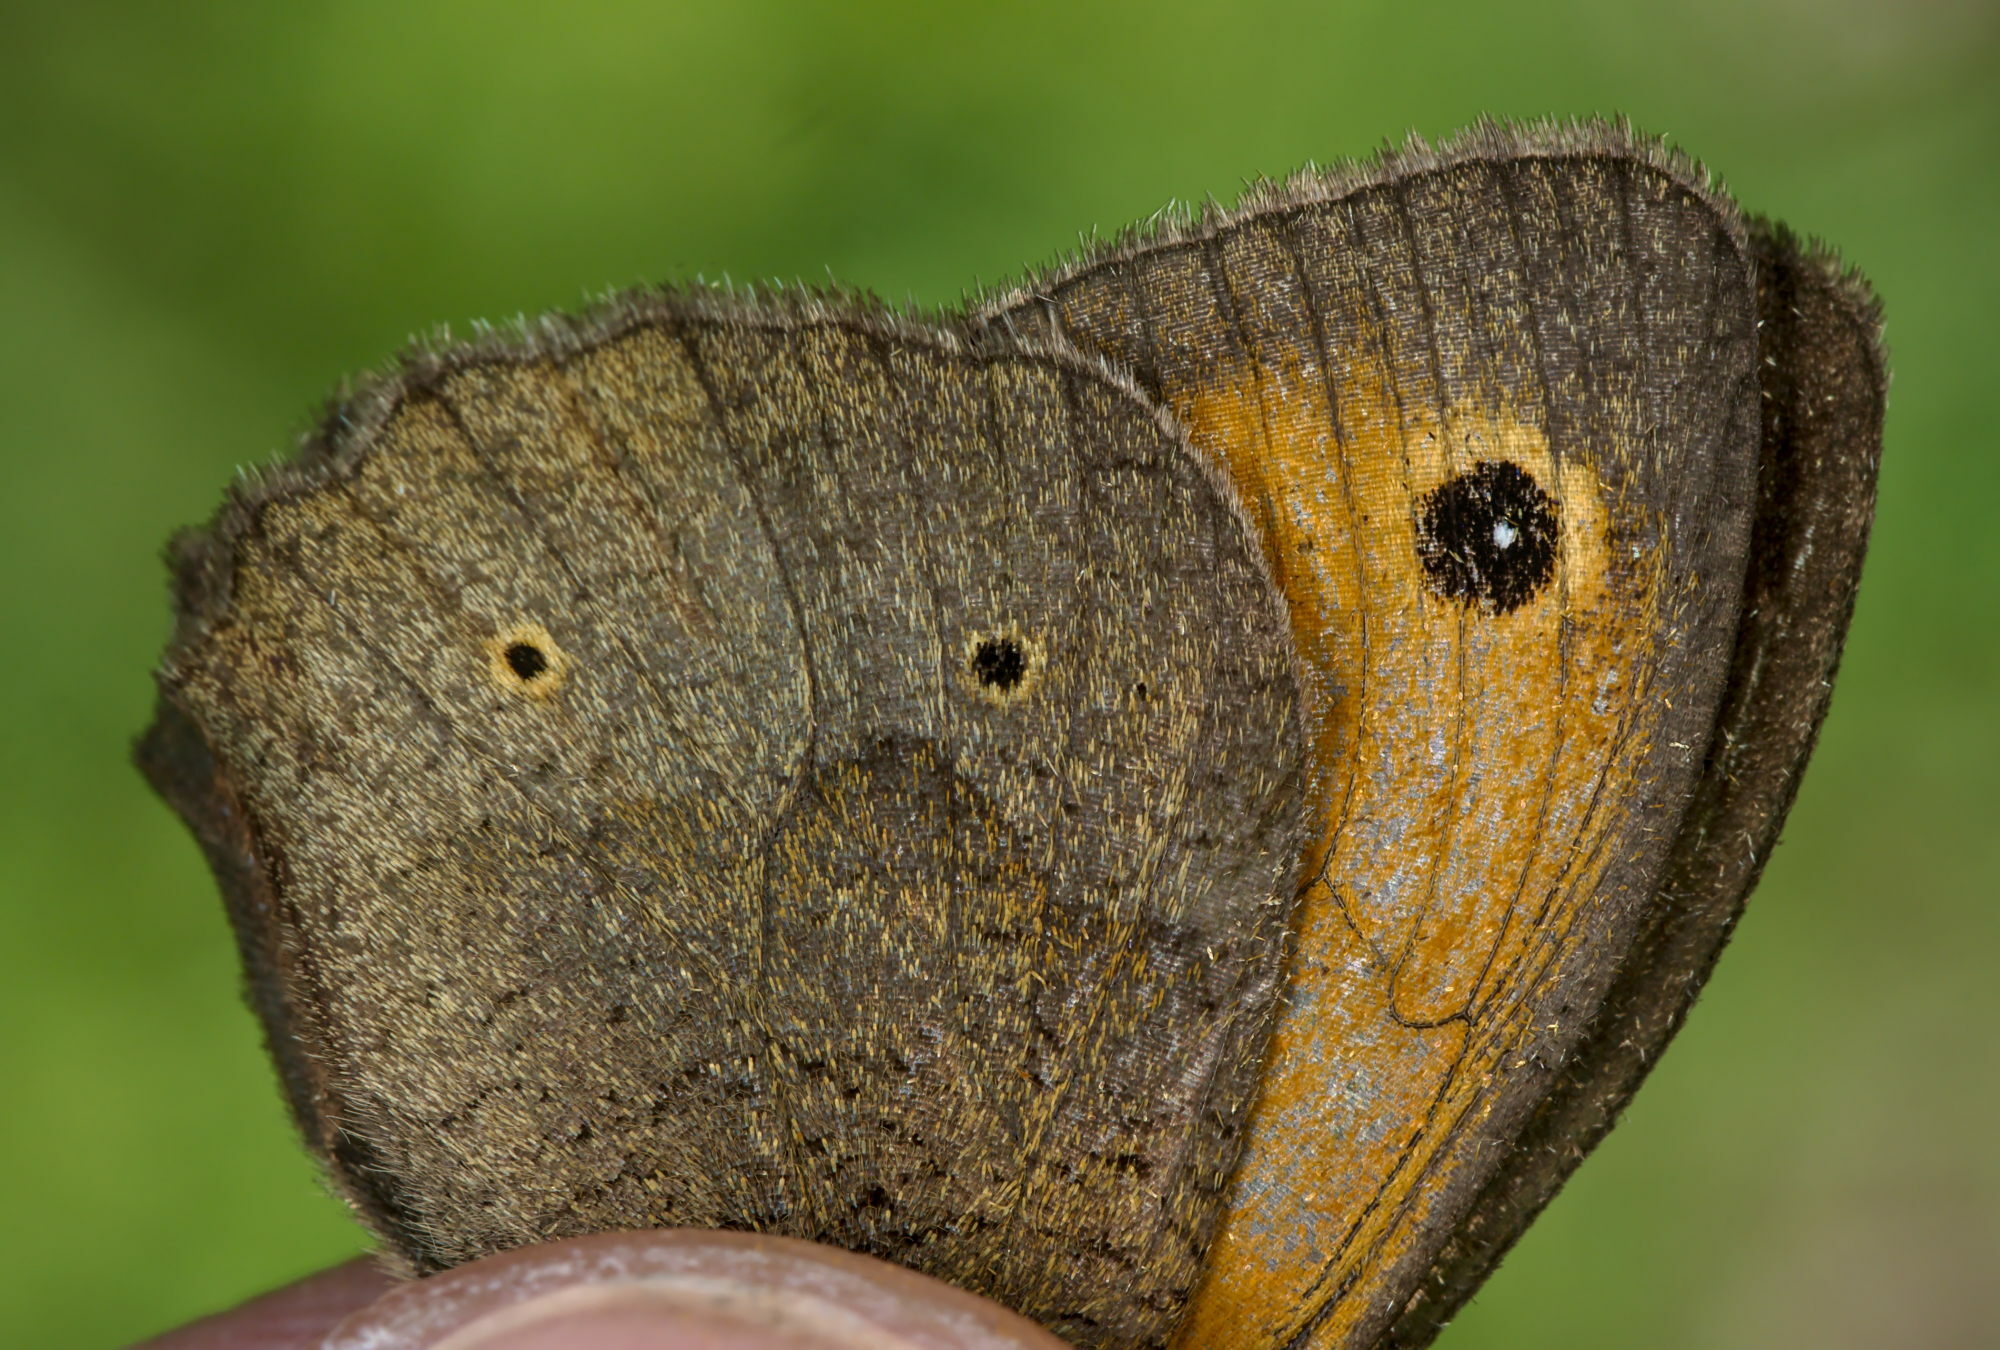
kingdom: Animalia
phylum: Arthropoda
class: Insecta
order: Lepidoptera
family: Nymphalidae
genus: Maniola
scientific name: Maniola jurtina
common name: Meadow brown
